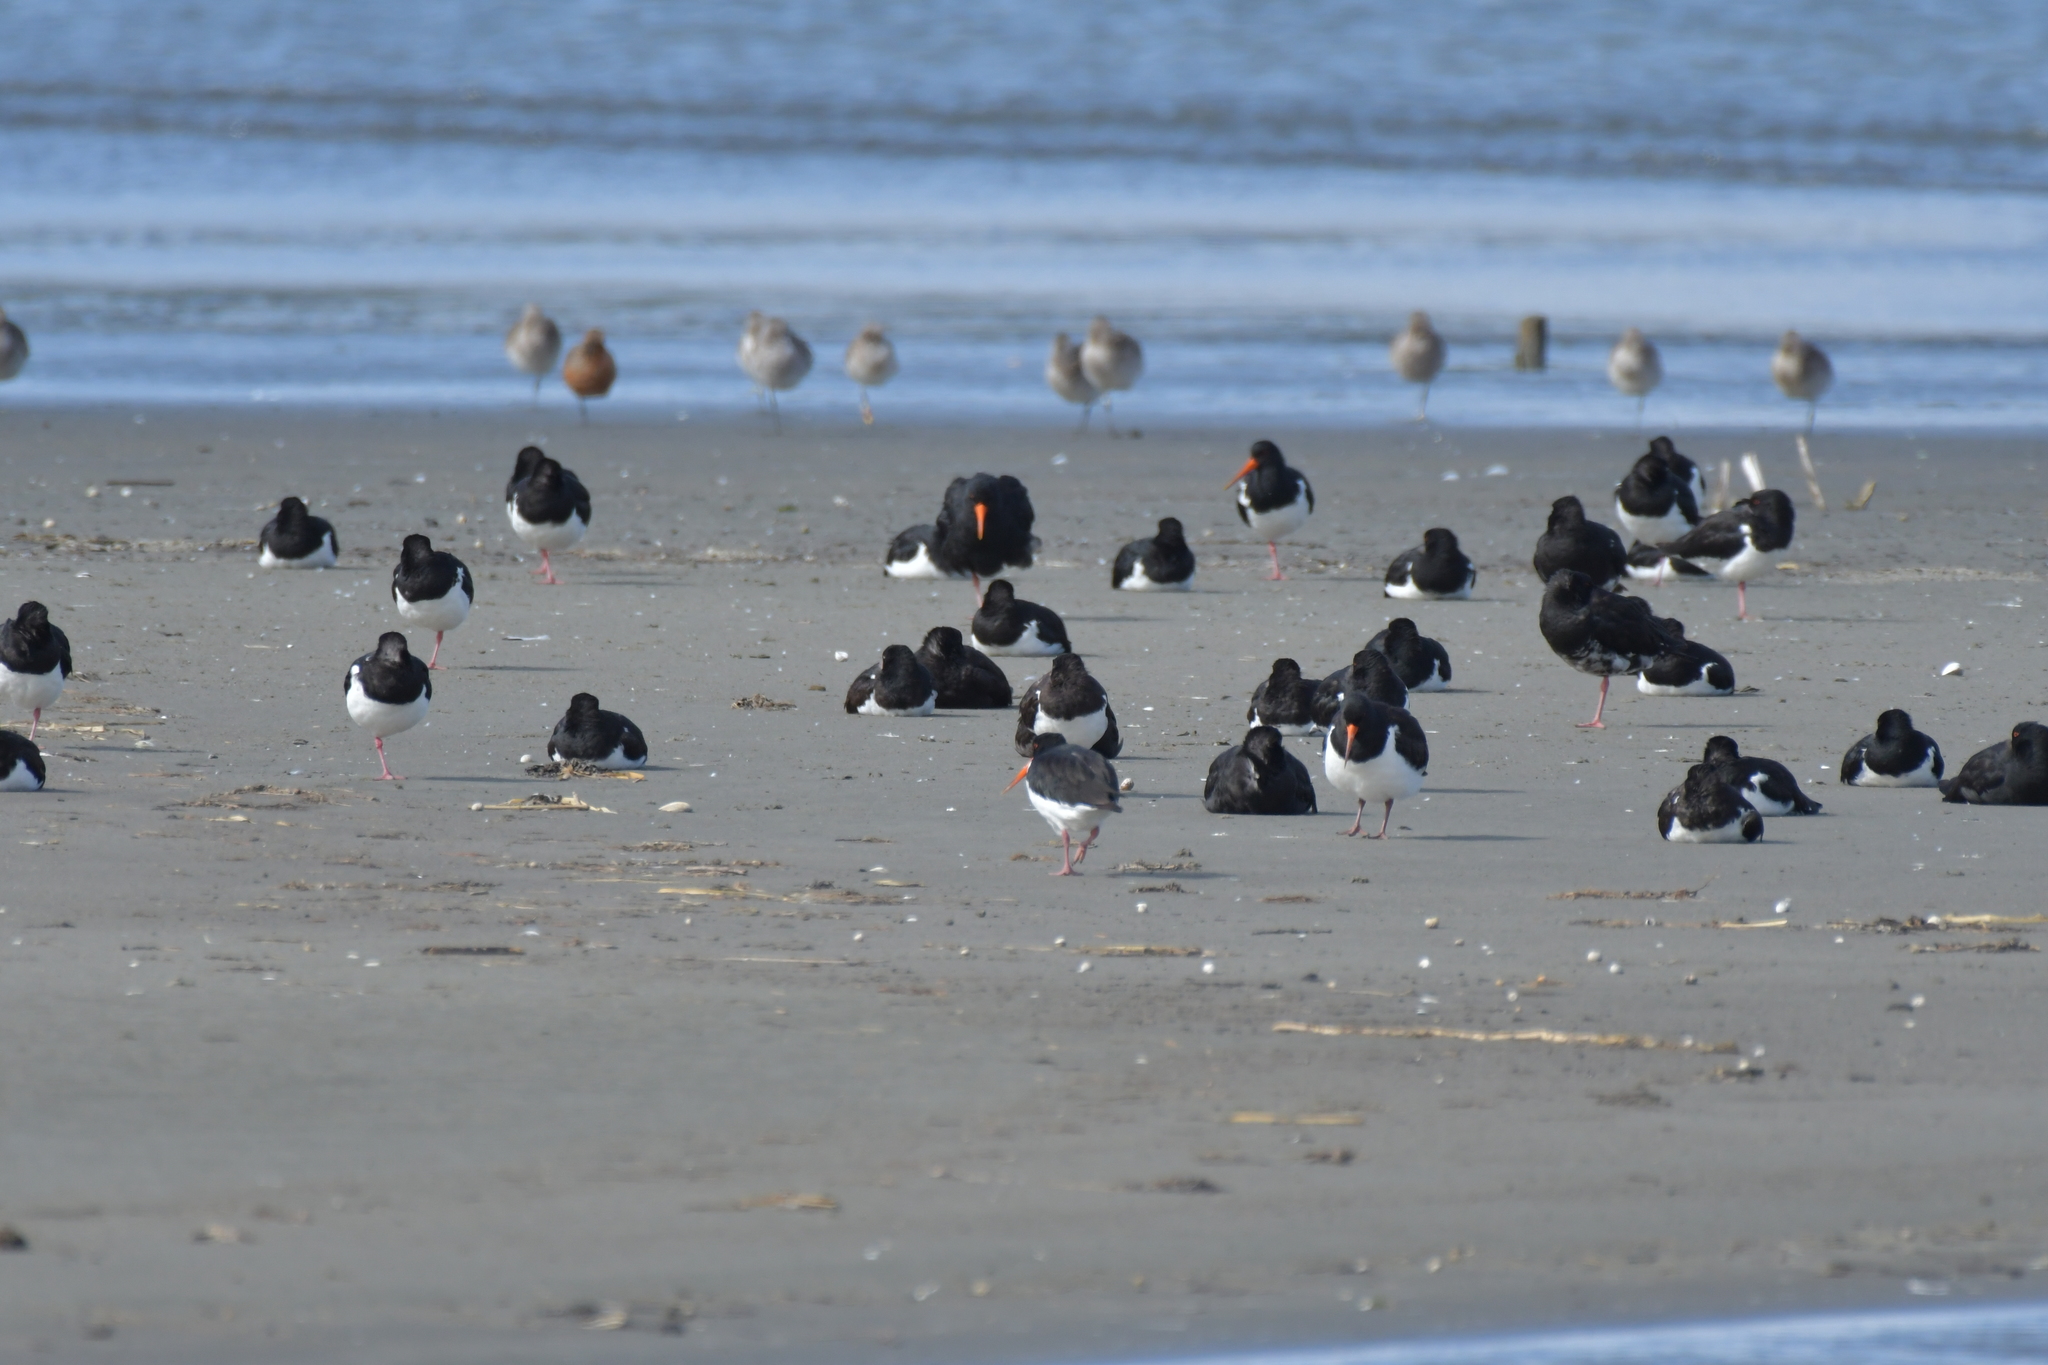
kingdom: Animalia
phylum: Chordata
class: Aves
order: Charadriiformes
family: Haematopodidae
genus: Haematopus
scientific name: Haematopus finschi
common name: South island oystercatcher
